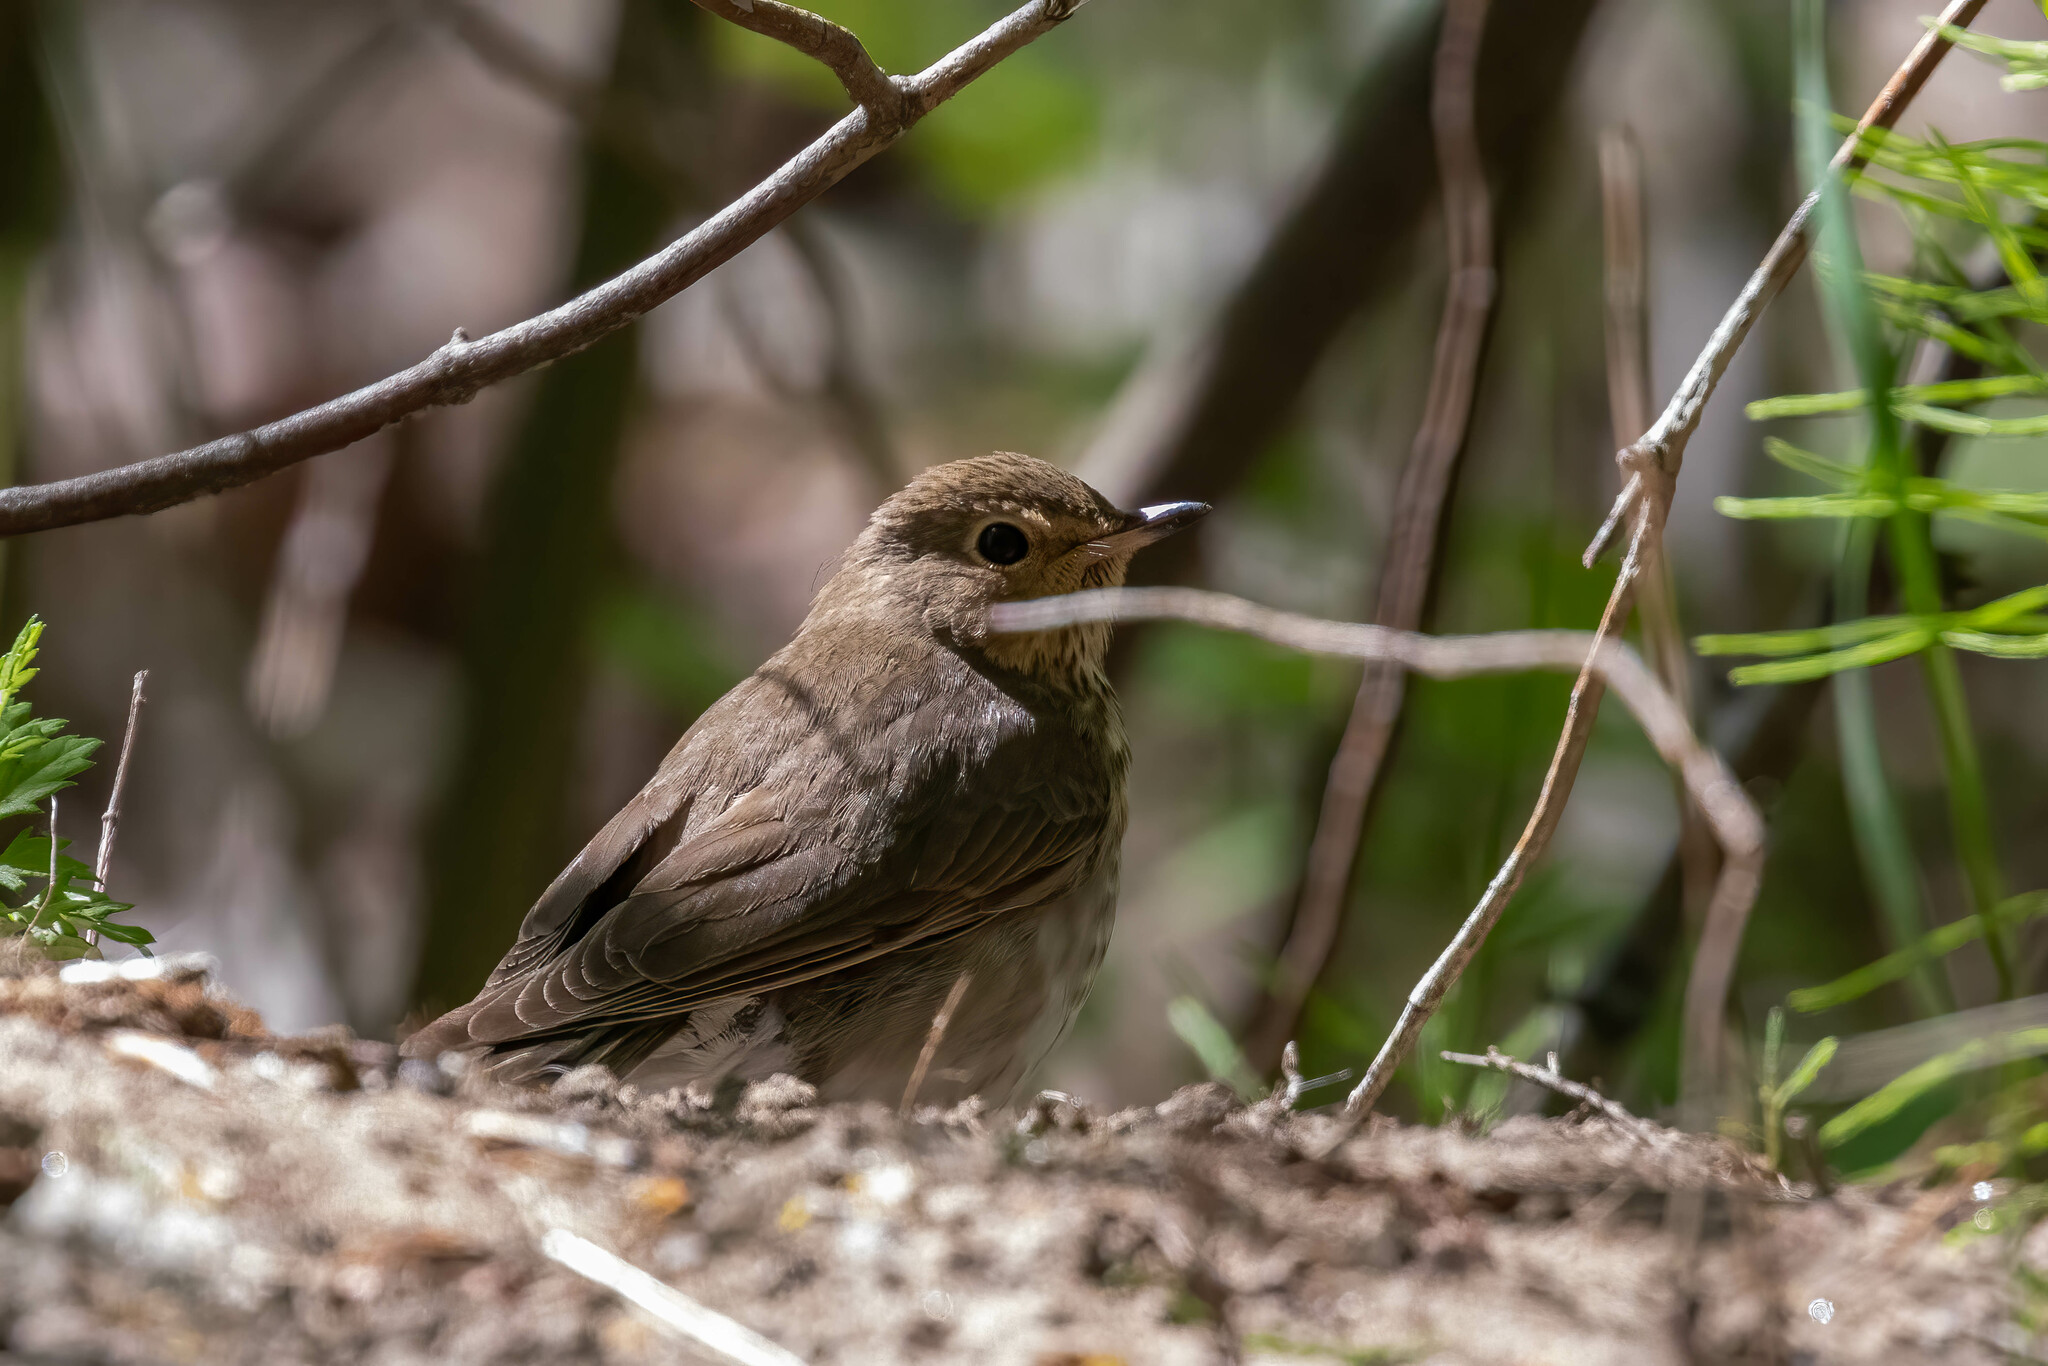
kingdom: Animalia
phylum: Chordata
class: Aves
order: Passeriformes
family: Turdidae
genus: Catharus
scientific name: Catharus ustulatus
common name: Swainson's thrush
